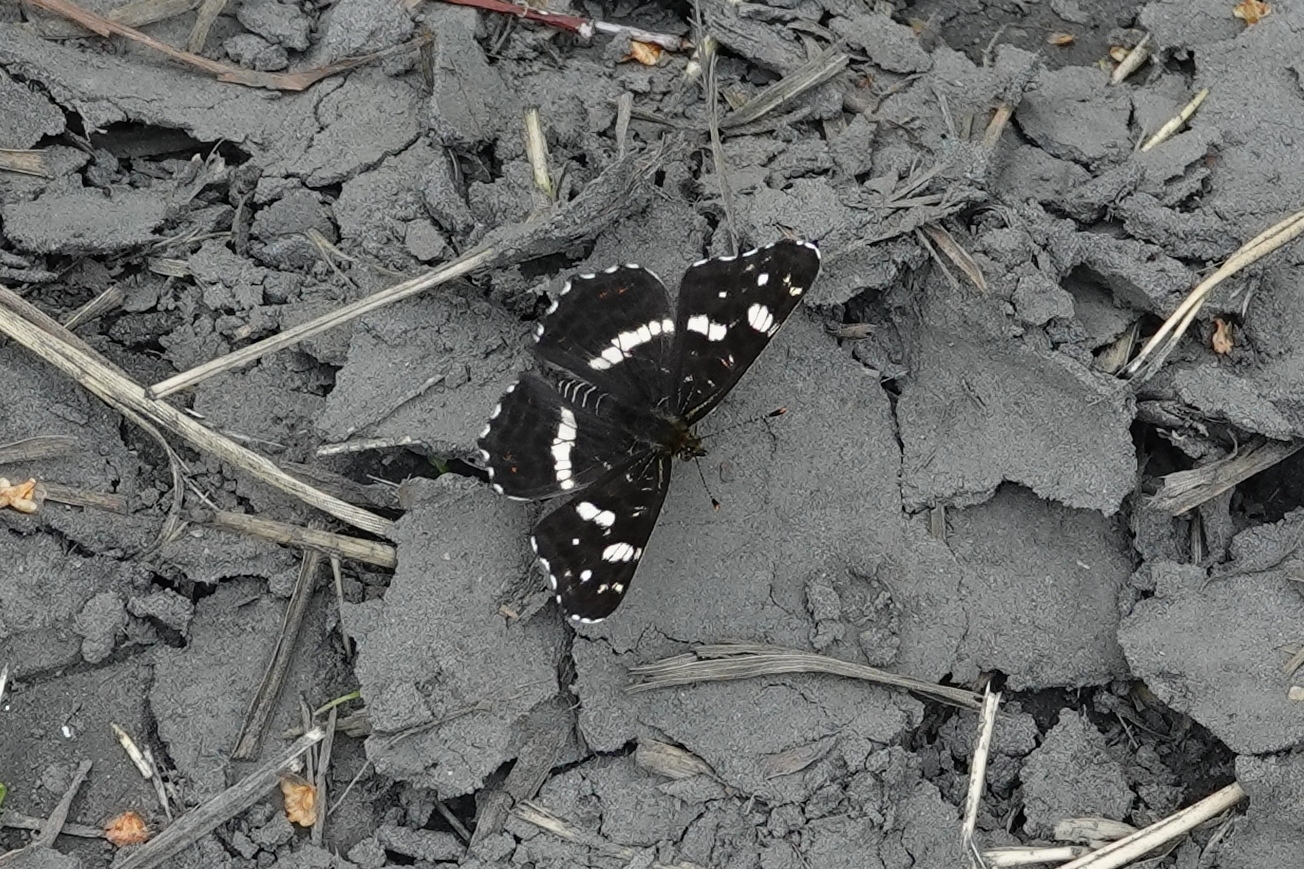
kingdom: Animalia
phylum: Arthropoda
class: Insecta
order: Lepidoptera
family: Nymphalidae
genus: Araschnia
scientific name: Araschnia levana
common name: Map butterfly
